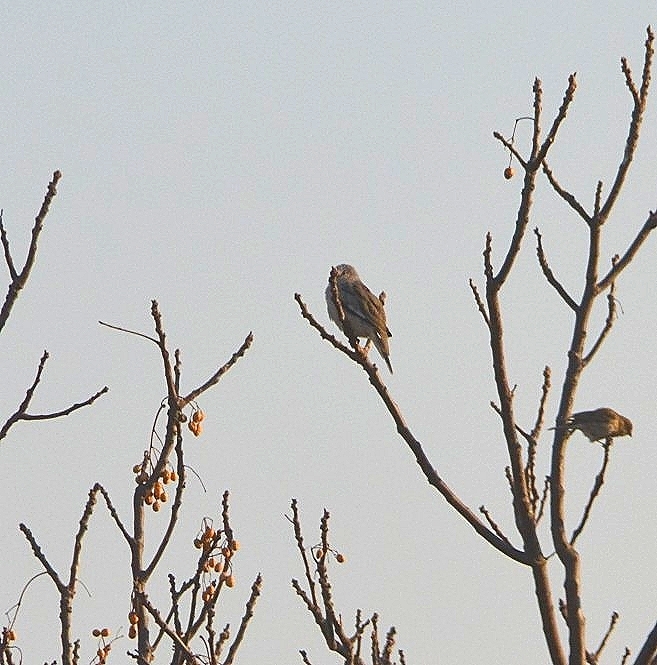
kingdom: Animalia
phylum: Chordata
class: Aves
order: Columbiformes
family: Columbidae
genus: Columbina
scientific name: Columbina picui
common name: Picui ground dove
